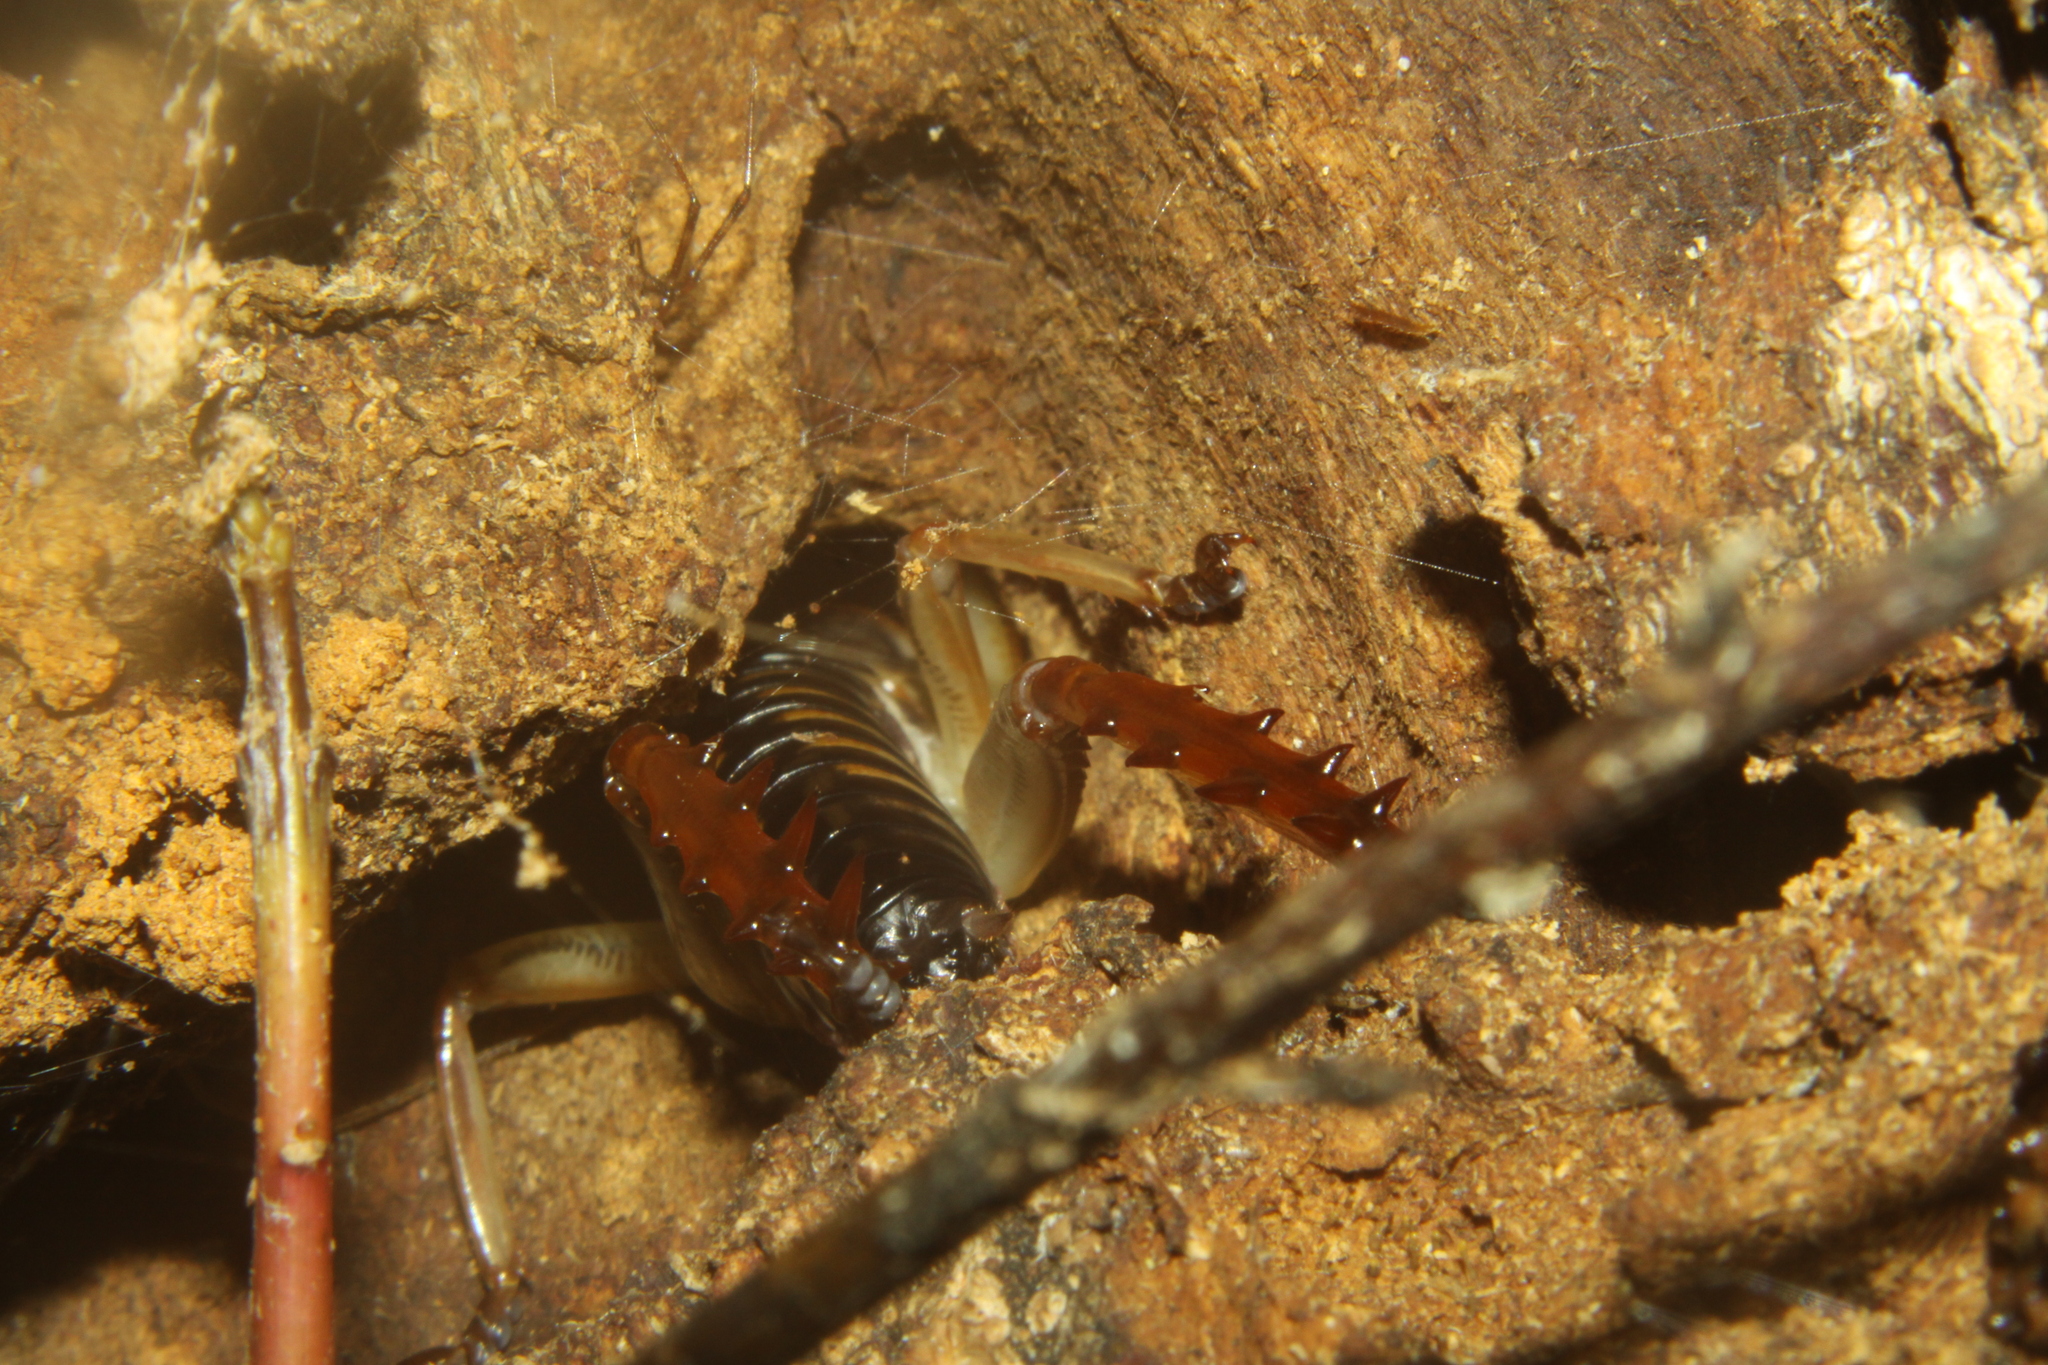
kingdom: Animalia
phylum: Arthropoda
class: Insecta
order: Orthoptera
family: Anostostomatidae
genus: Hemideina
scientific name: Hemideina crassidens
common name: Wellington tree weta
